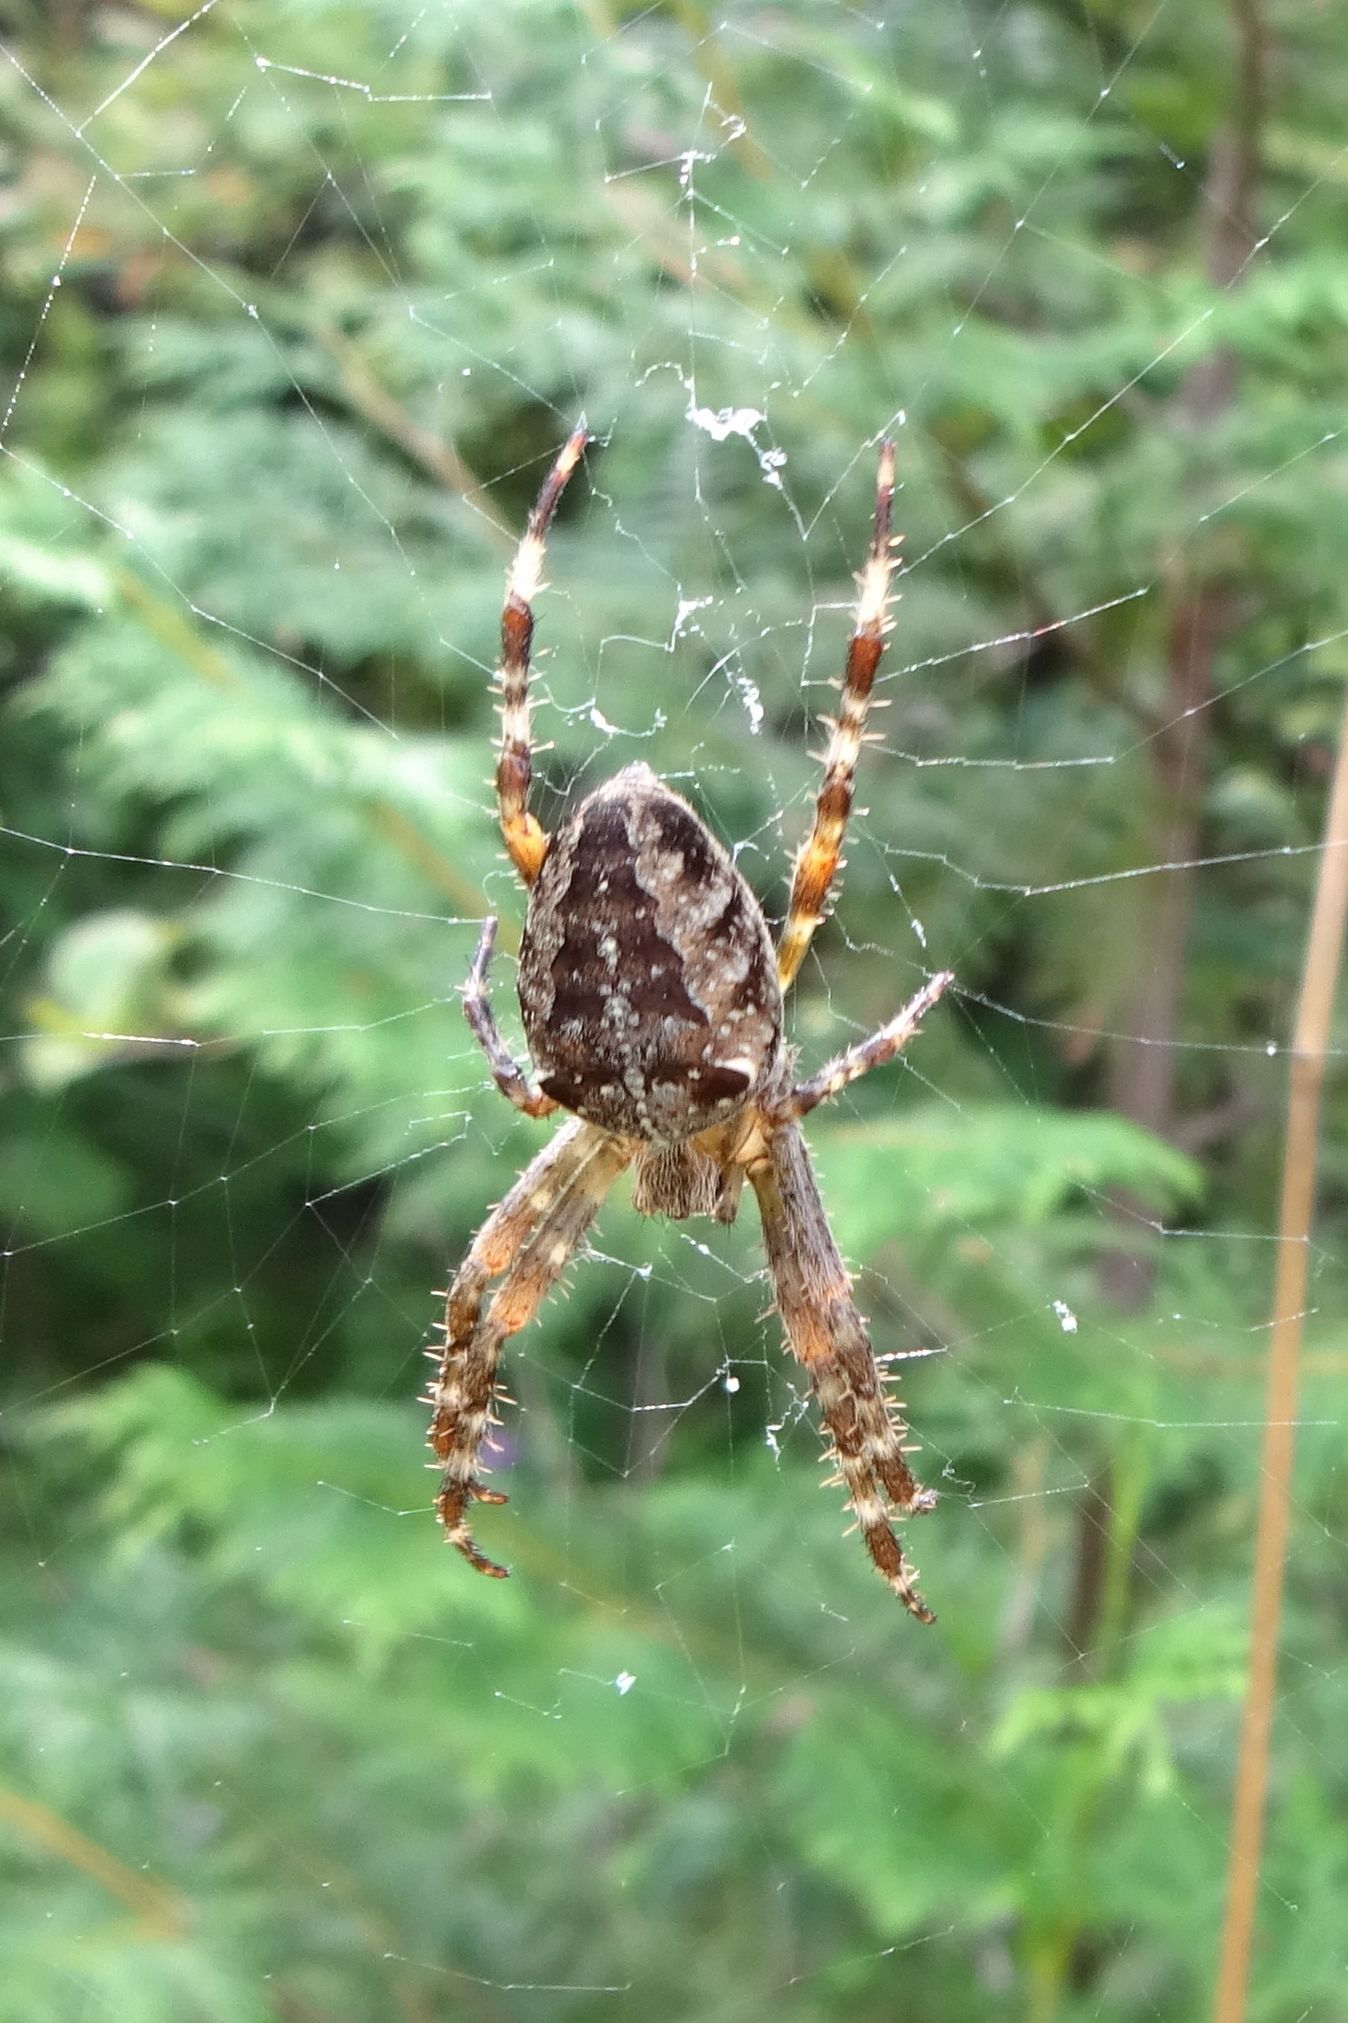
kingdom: Animalia
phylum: Arthropoda
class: Arachnida
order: Araneae
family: Araneidae
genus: Araneus
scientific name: Araneus diadematus
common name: Cross orbweaver
